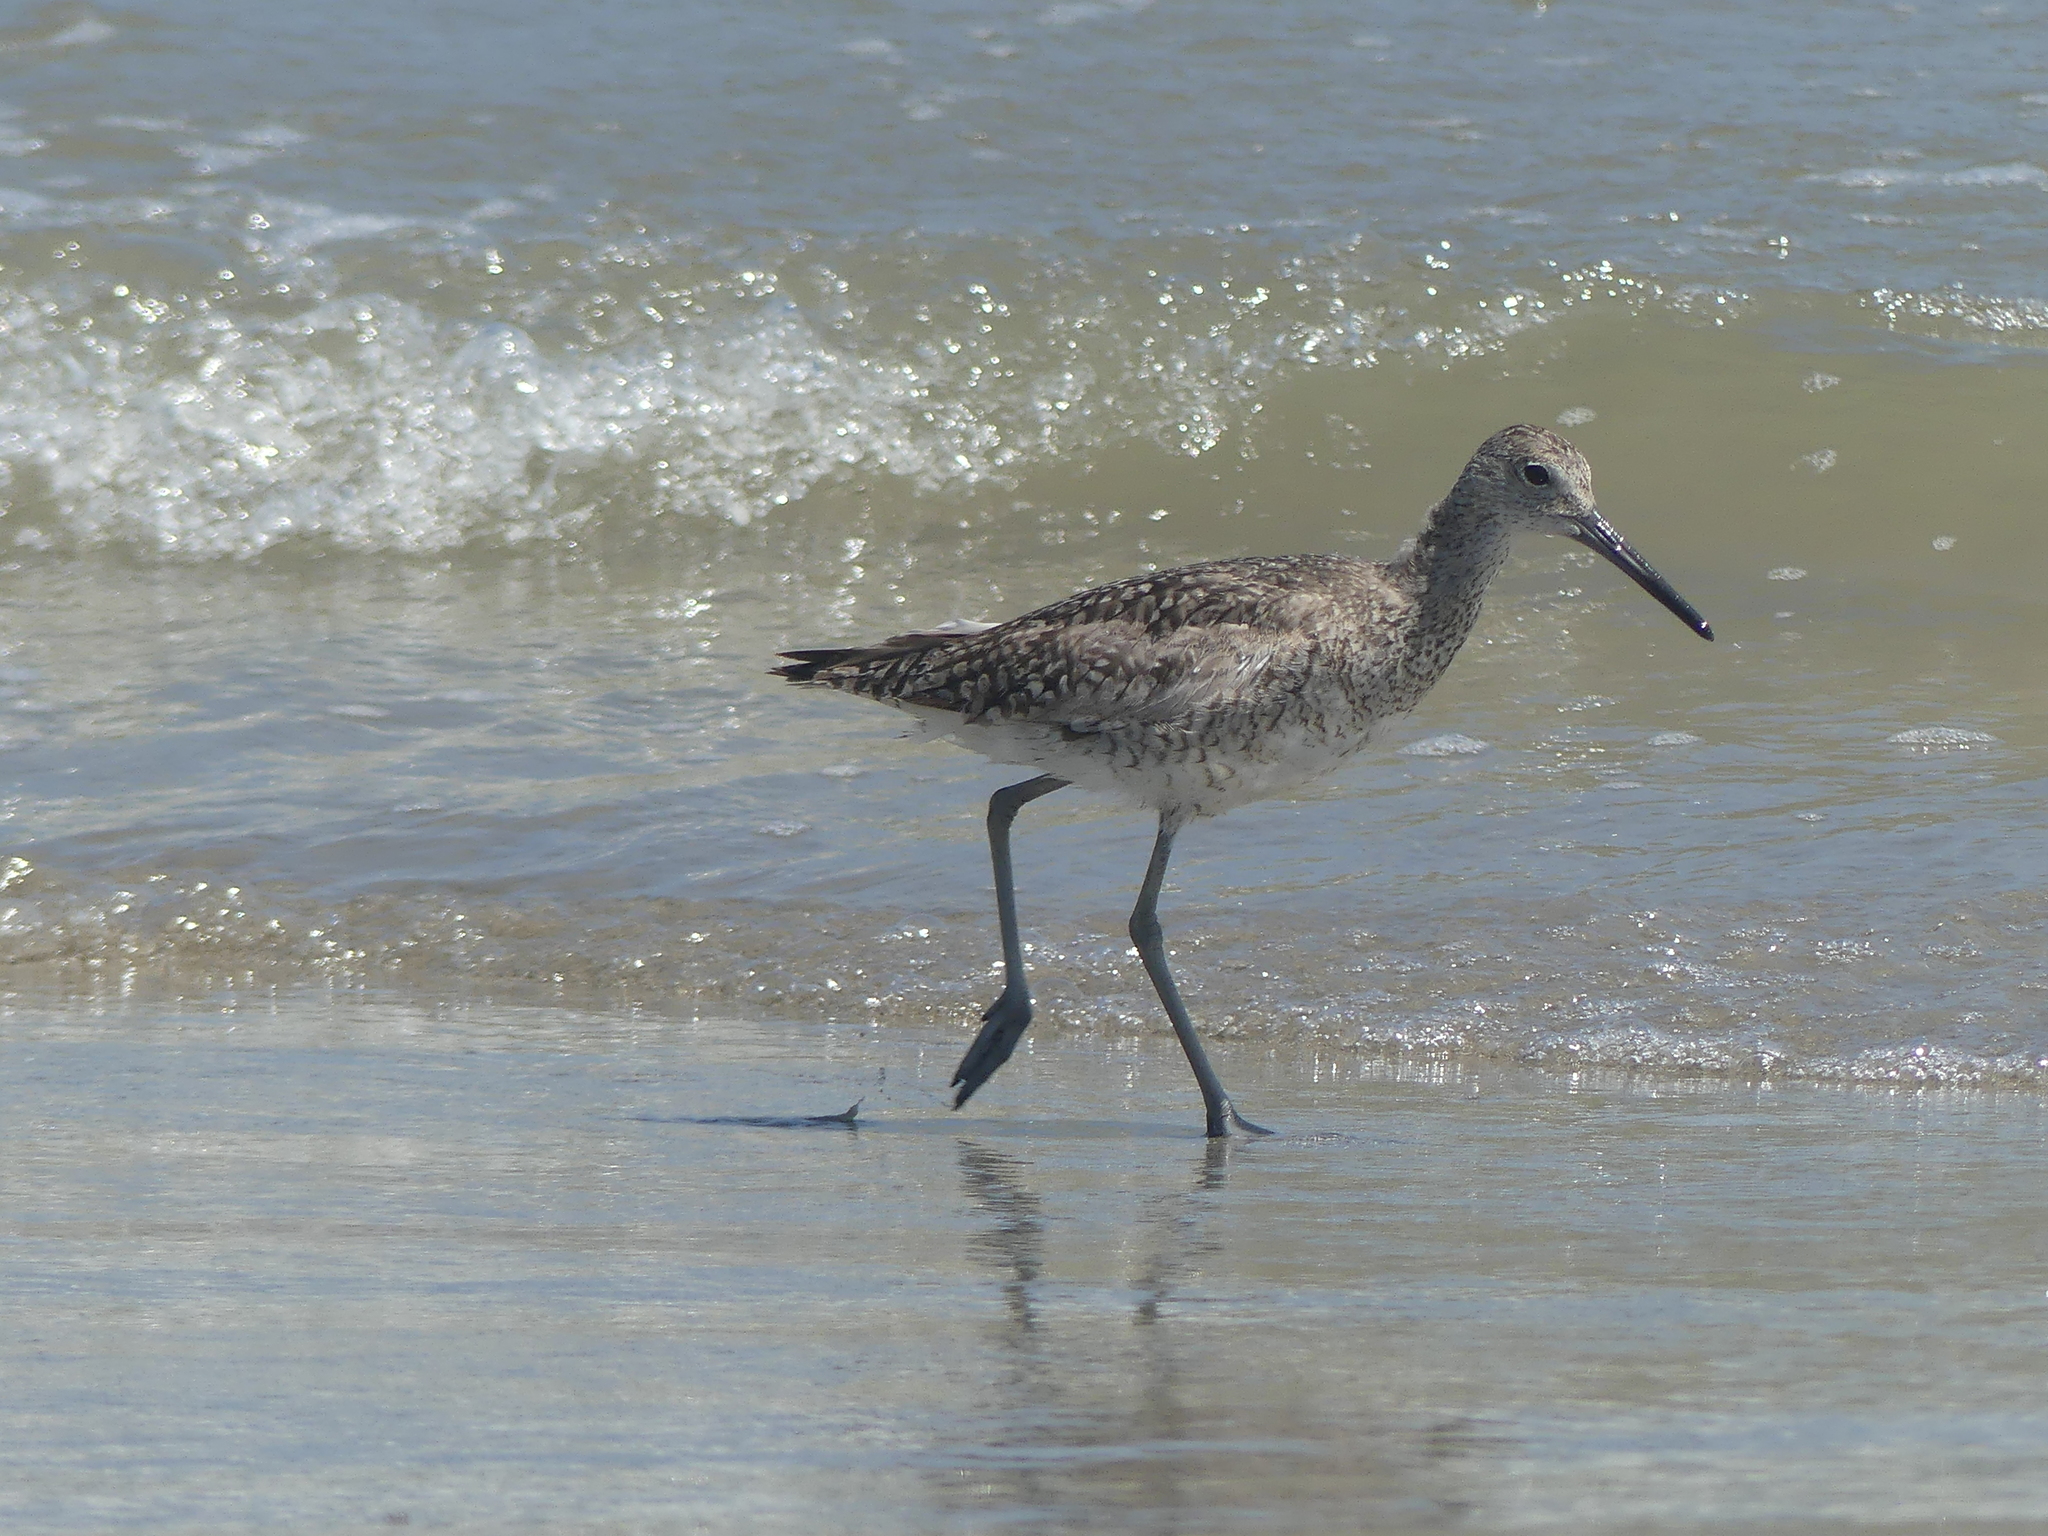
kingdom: Animalia
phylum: Chordata
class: Aves
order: Charadriiformes
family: Scolopacidae
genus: Tringa
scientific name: Tringa semipalmata
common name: Willet
